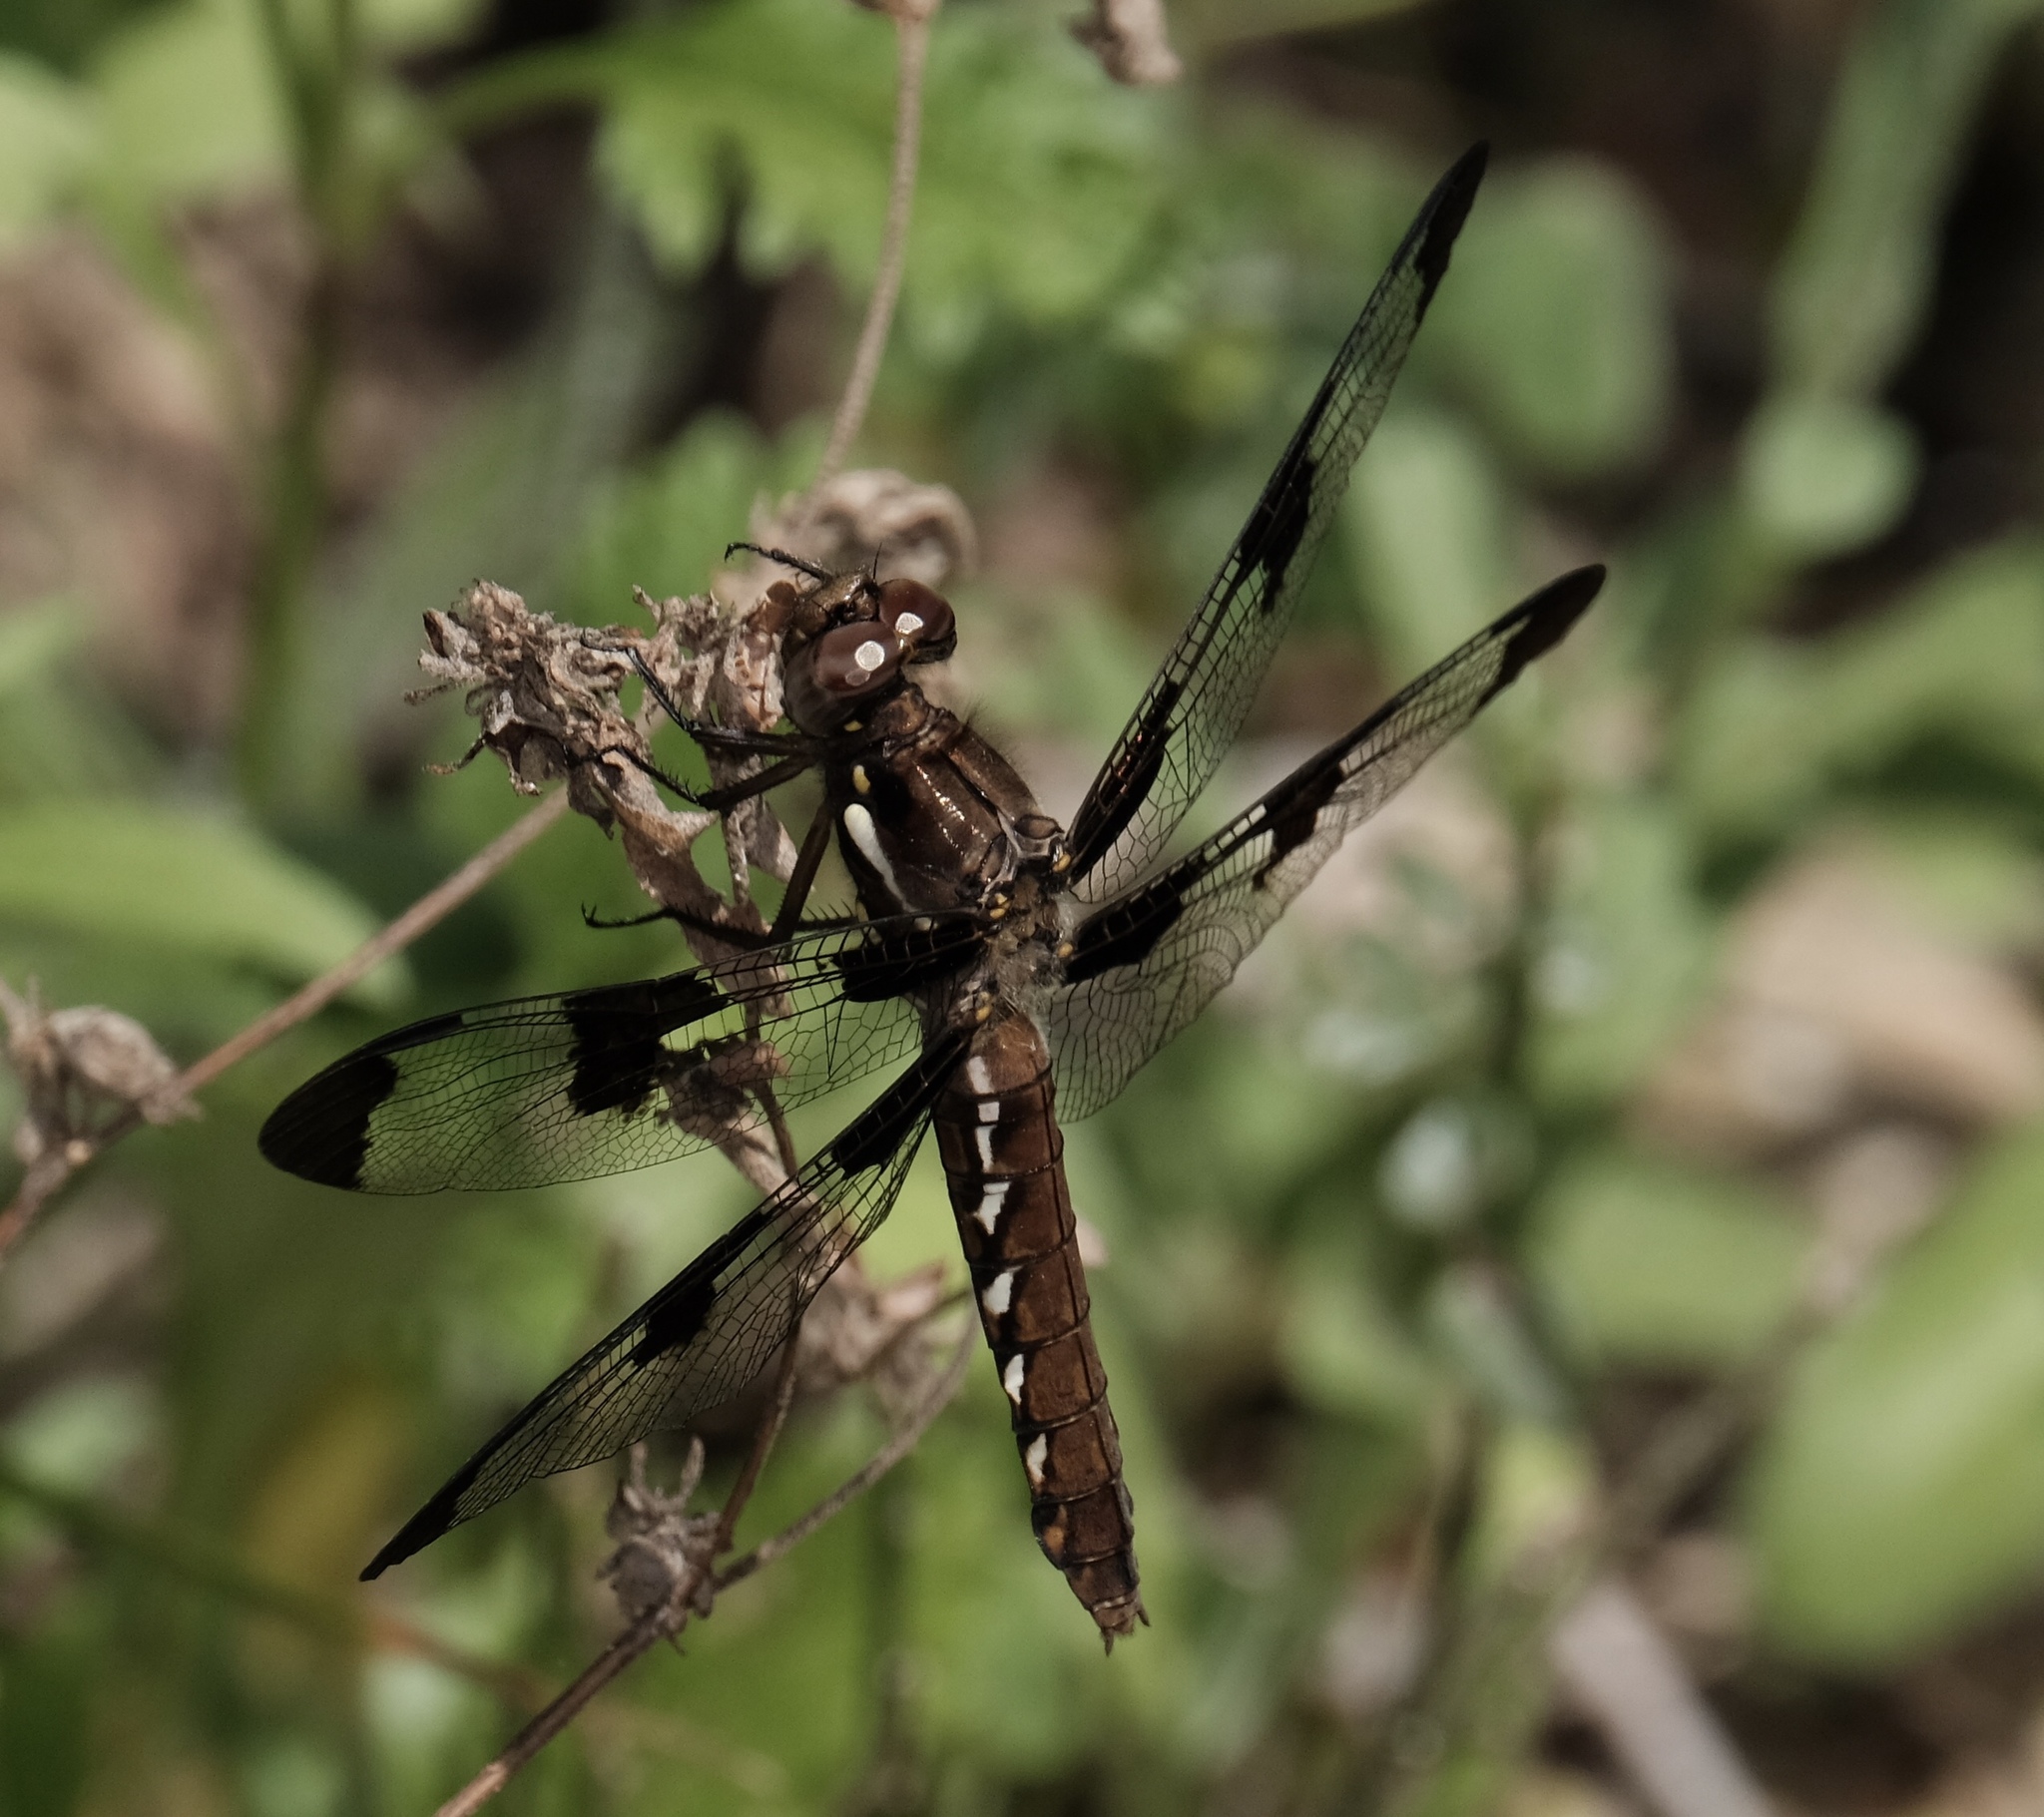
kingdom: Animalia
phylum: Arthropoda
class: Insecta
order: Odonata
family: Libellulidae
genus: Plathemis
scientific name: Plathemis lydia
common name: Common whitetail
